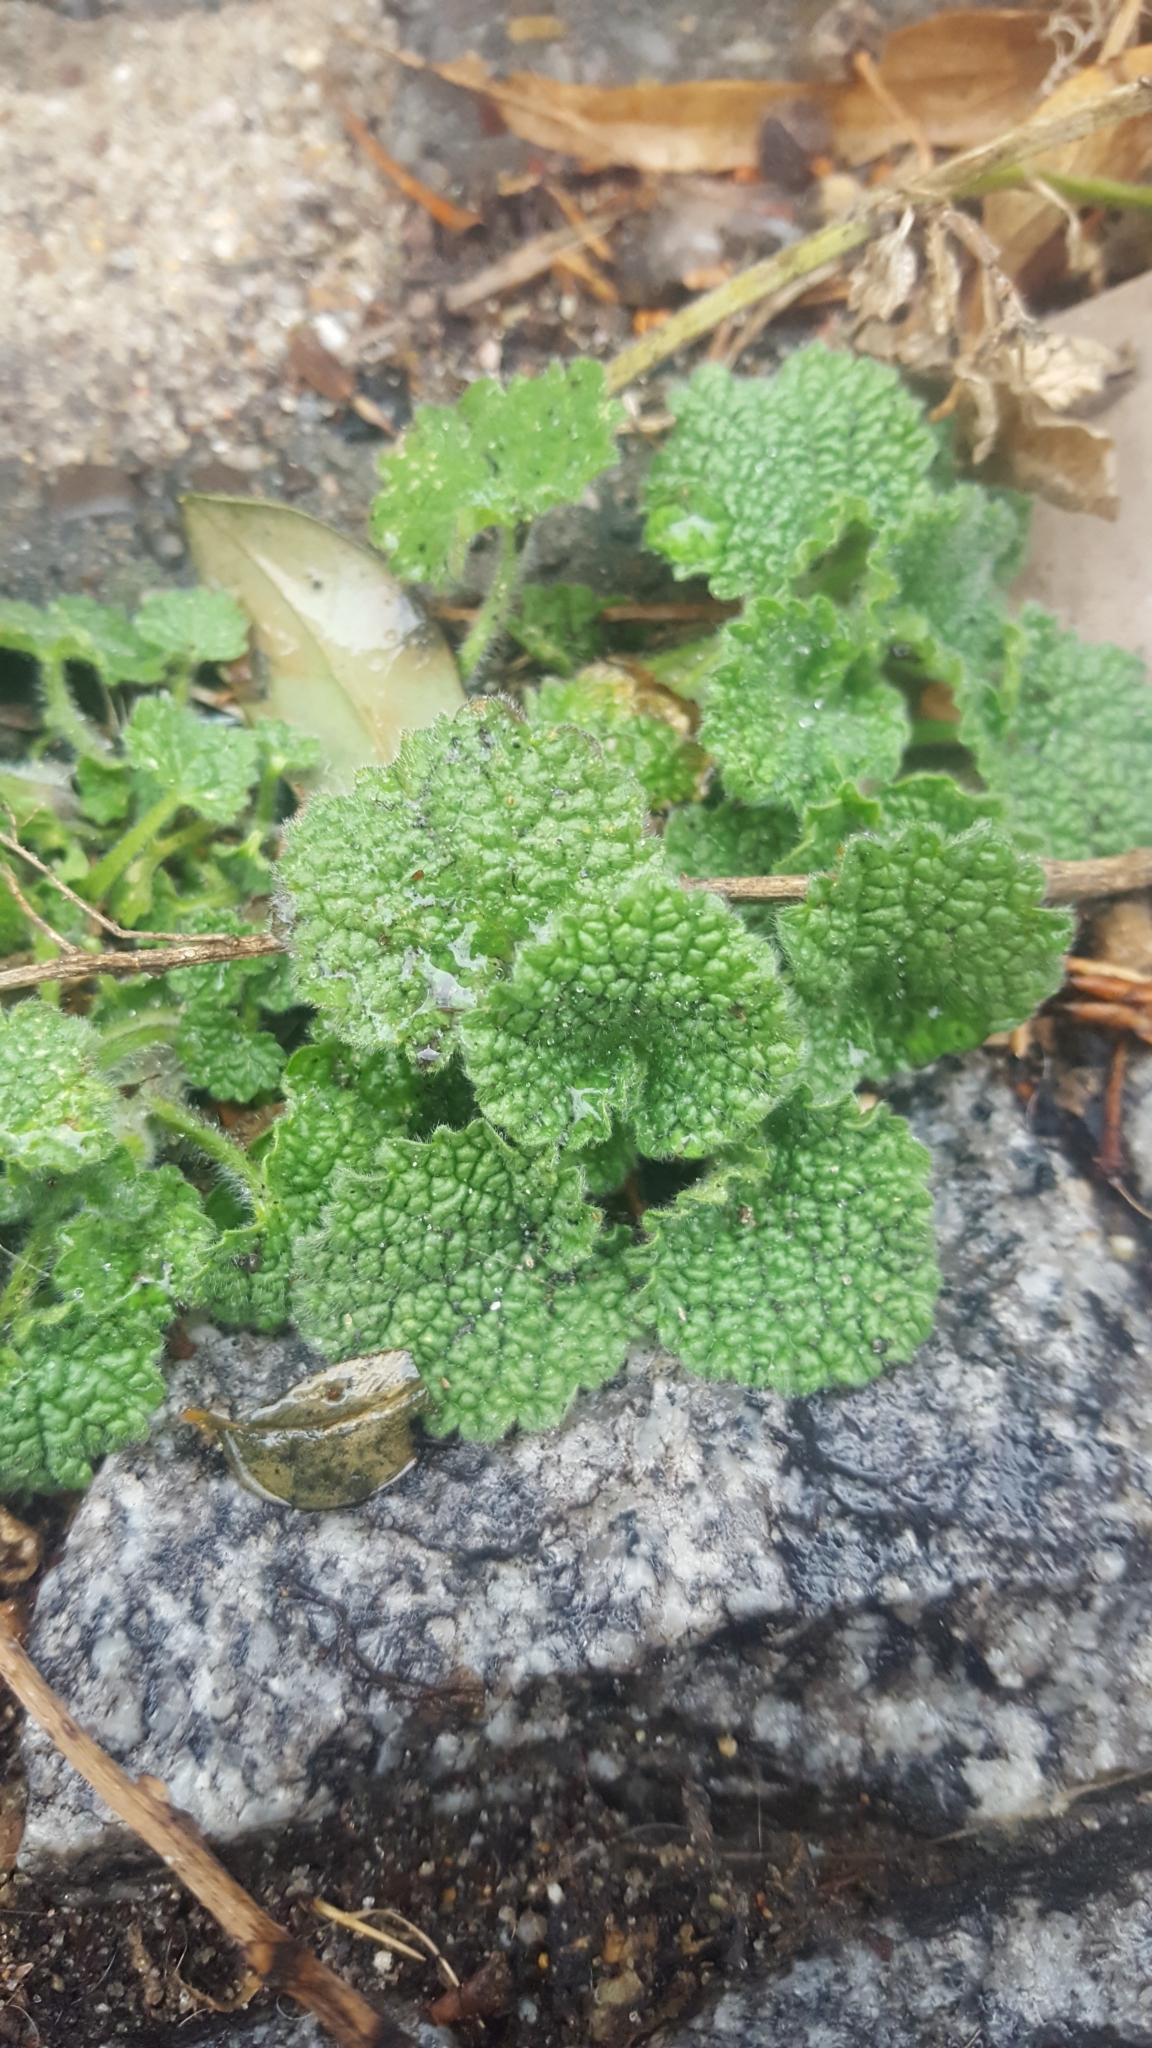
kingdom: Plantae
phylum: Tracheophyta
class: Magnoliopsida
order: Lamiales
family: Lamiaceae
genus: Ballota
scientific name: Ballota nigra
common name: Black horehound
